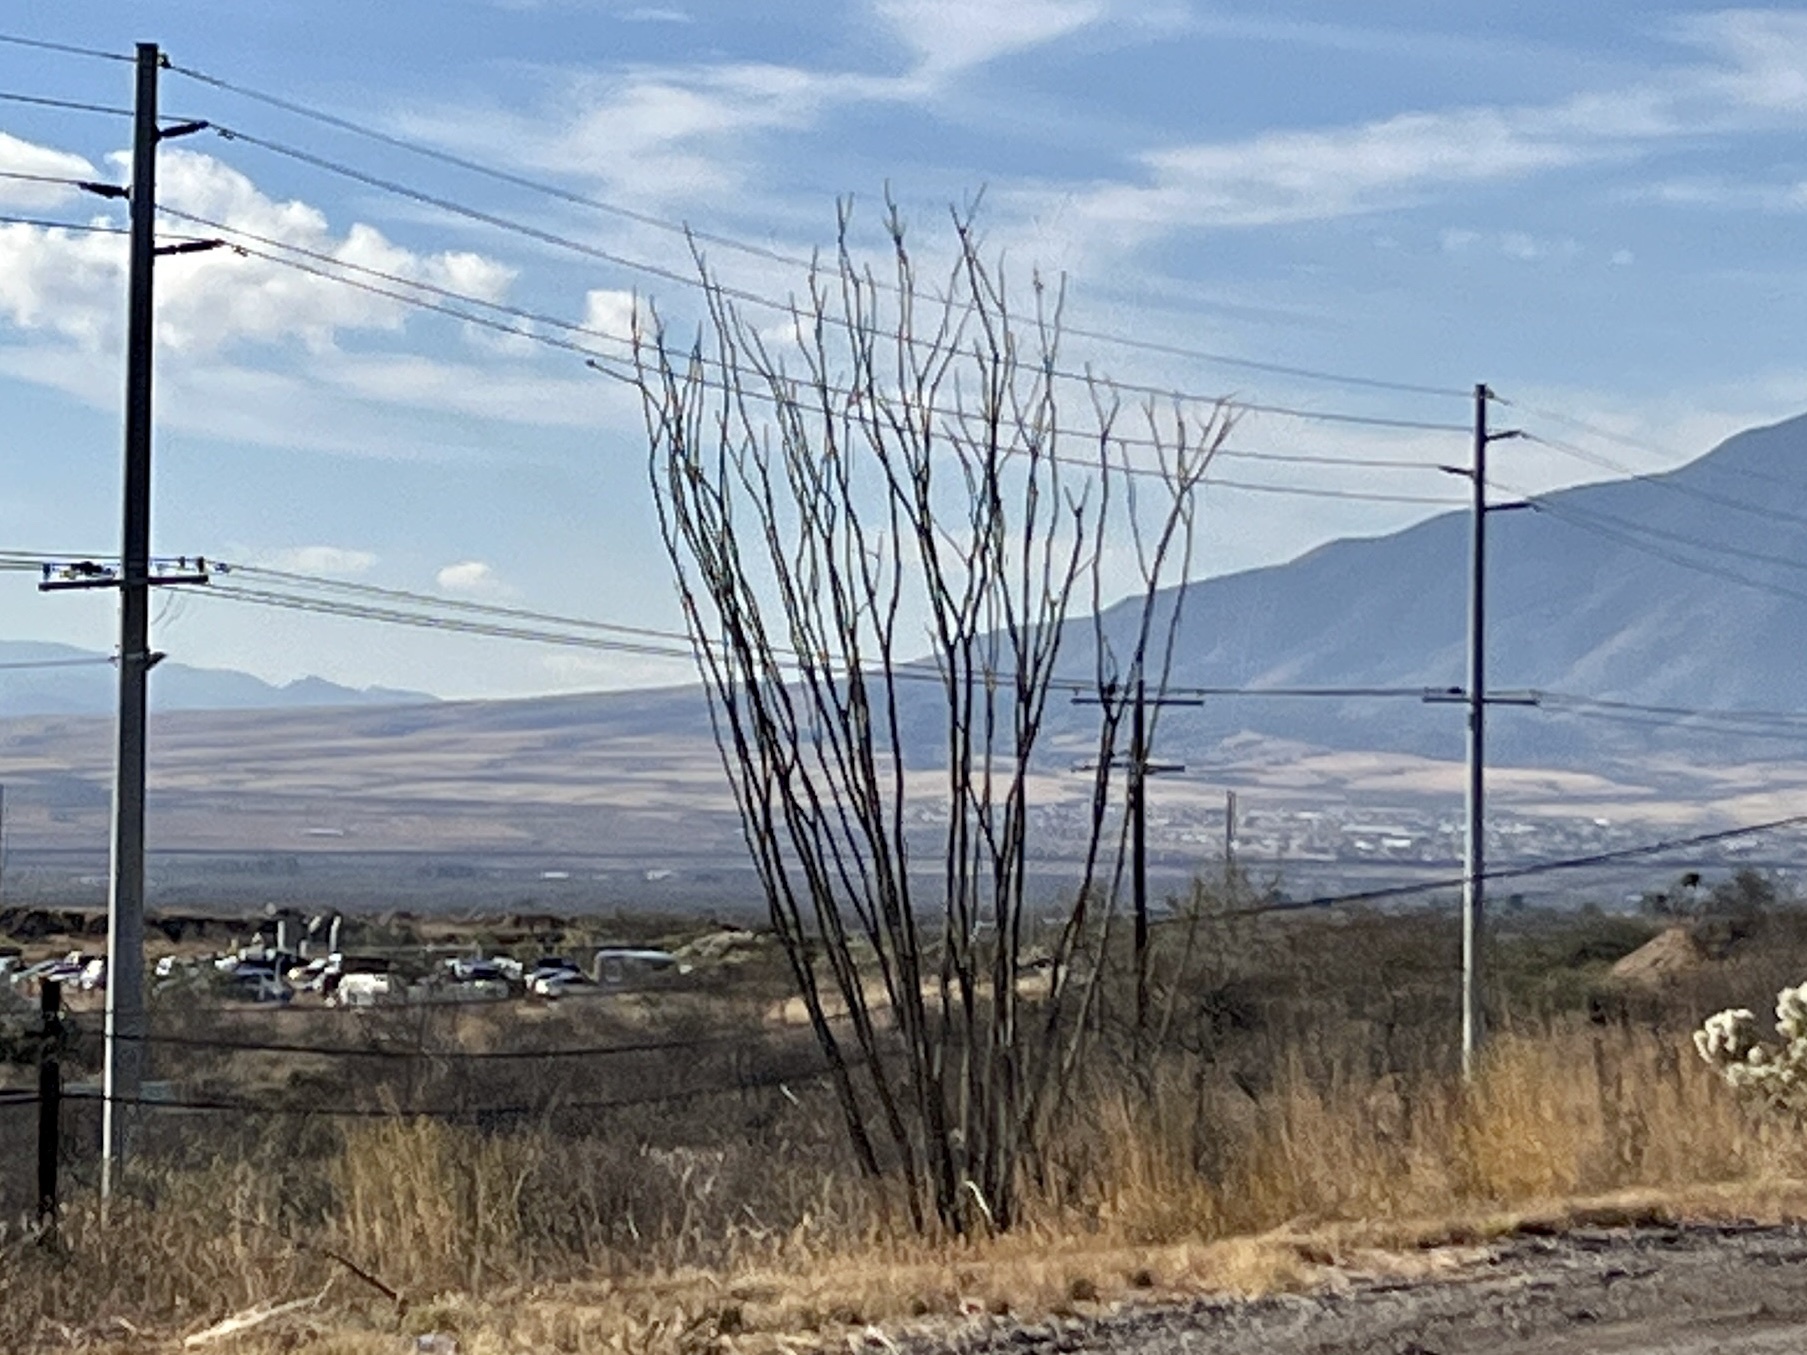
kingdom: Plantae
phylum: Tracheophyta
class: Magnoliopsida
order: Ericales
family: Fouquieriaceae
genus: Fouquieria
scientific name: Fouquieria splendens
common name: Vine-cactus
